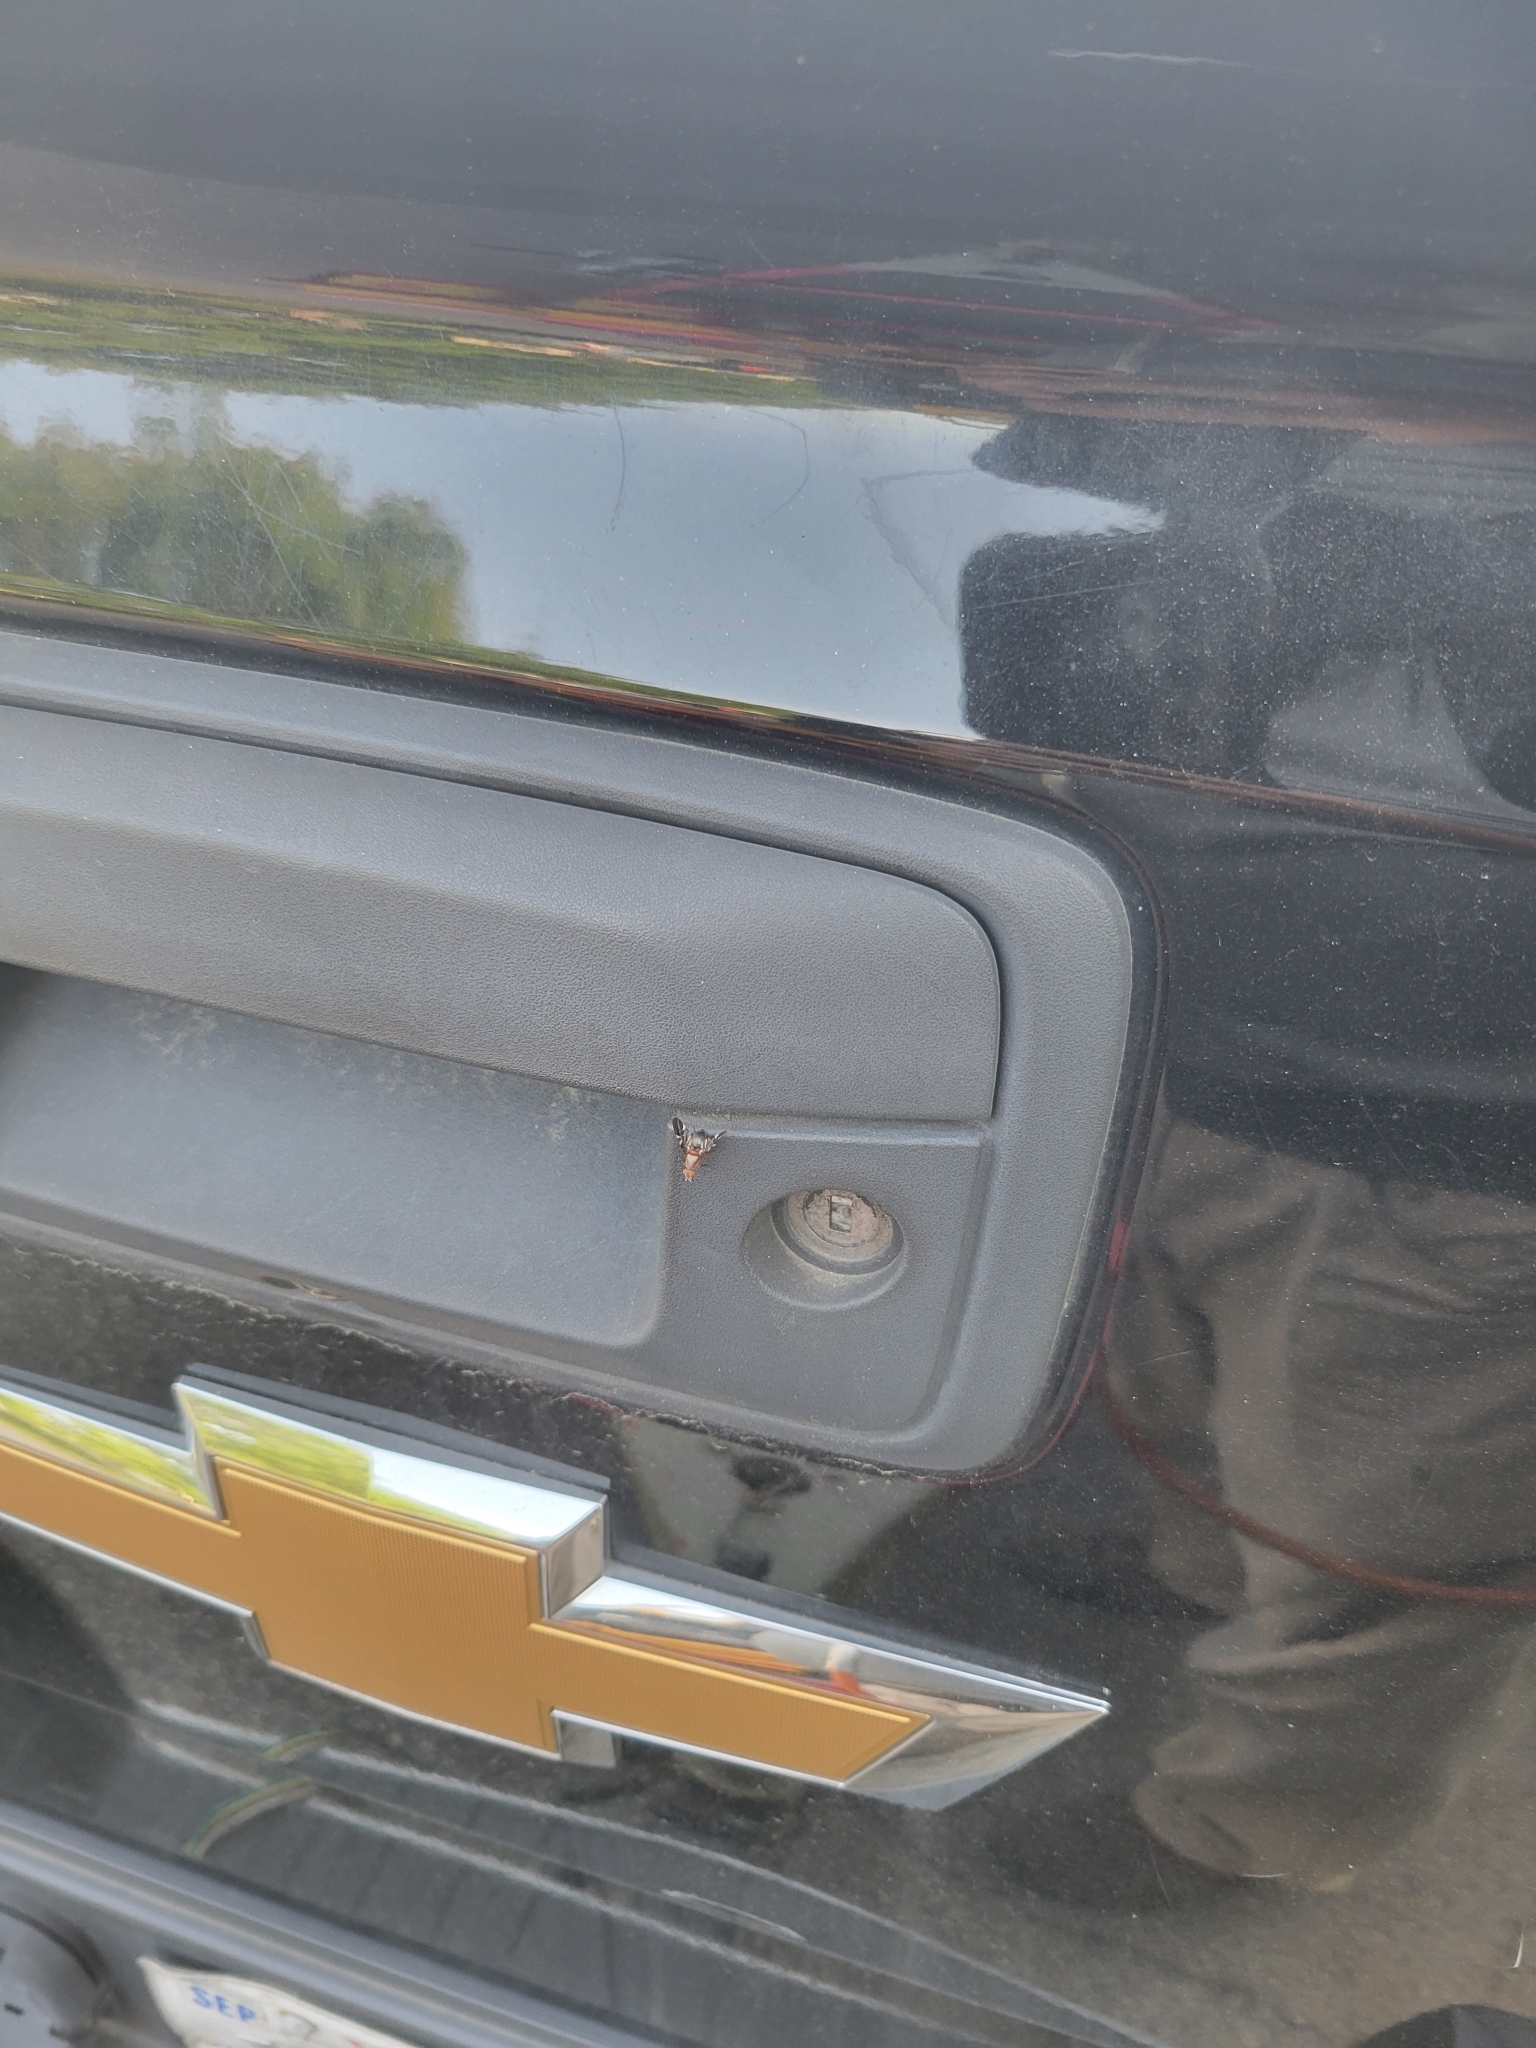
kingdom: Animalia
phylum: Arthropoda
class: Insecta
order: Diptera
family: Ulidiidae
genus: Delphinia
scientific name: Delphinia picta
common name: Common picture-winged fly
